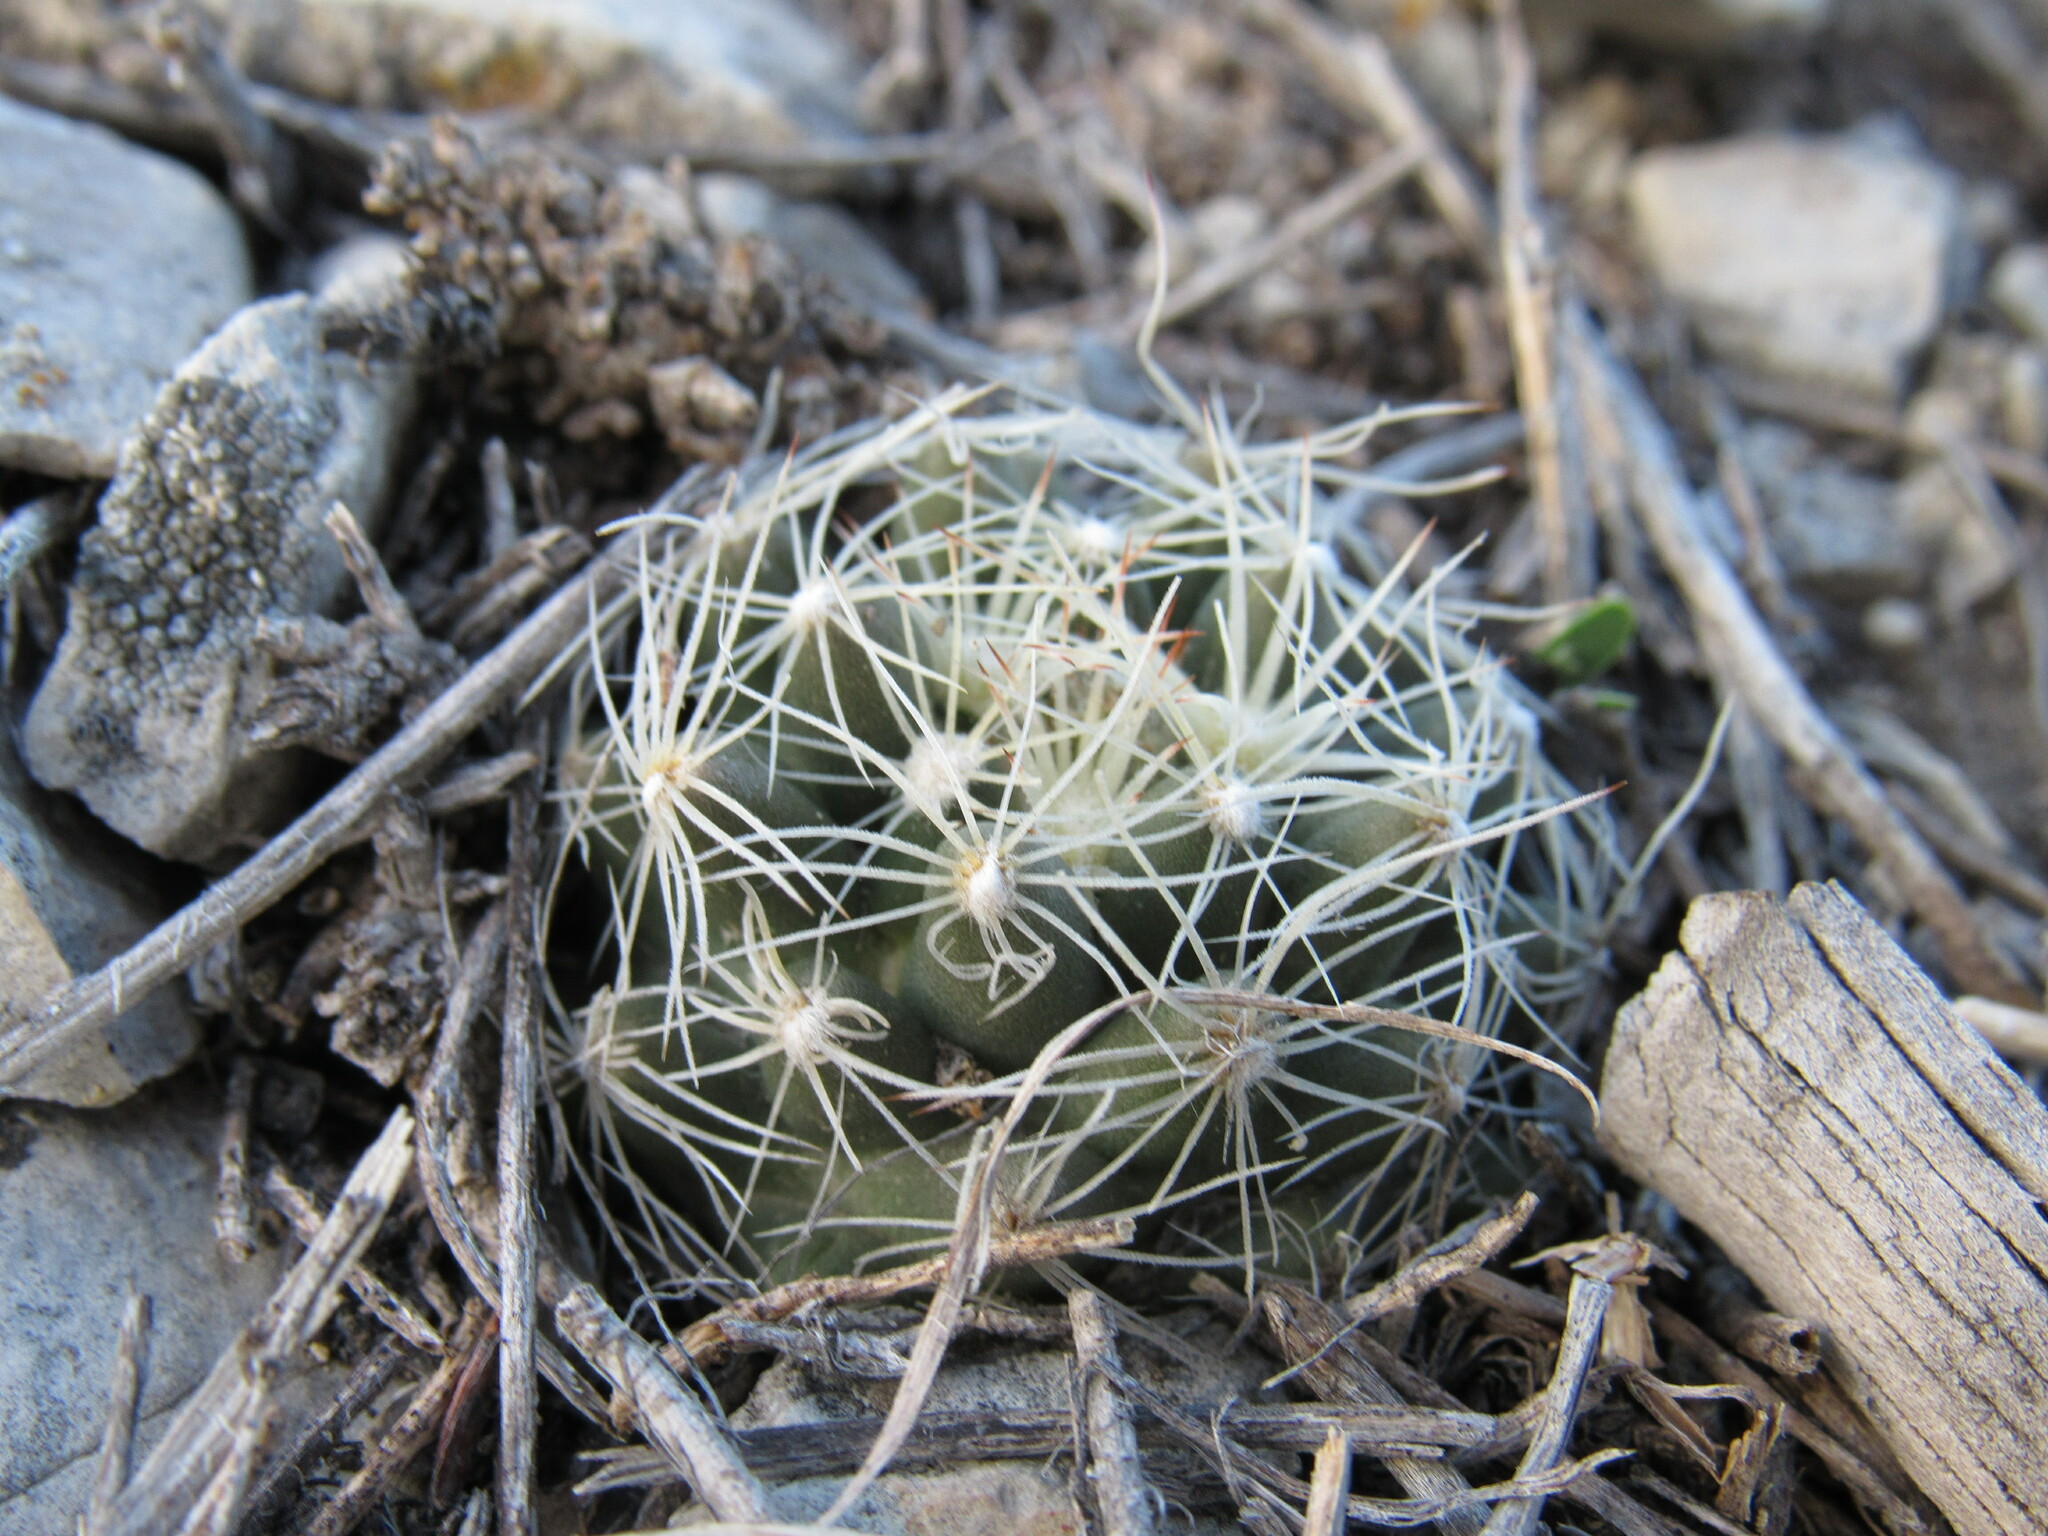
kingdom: Plantae
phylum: Tracheophyta
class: Magnoliopsida
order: Caryophyllales
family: Cactaceae
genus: Pelecyphora
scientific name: Pelecyphora missouriensis
